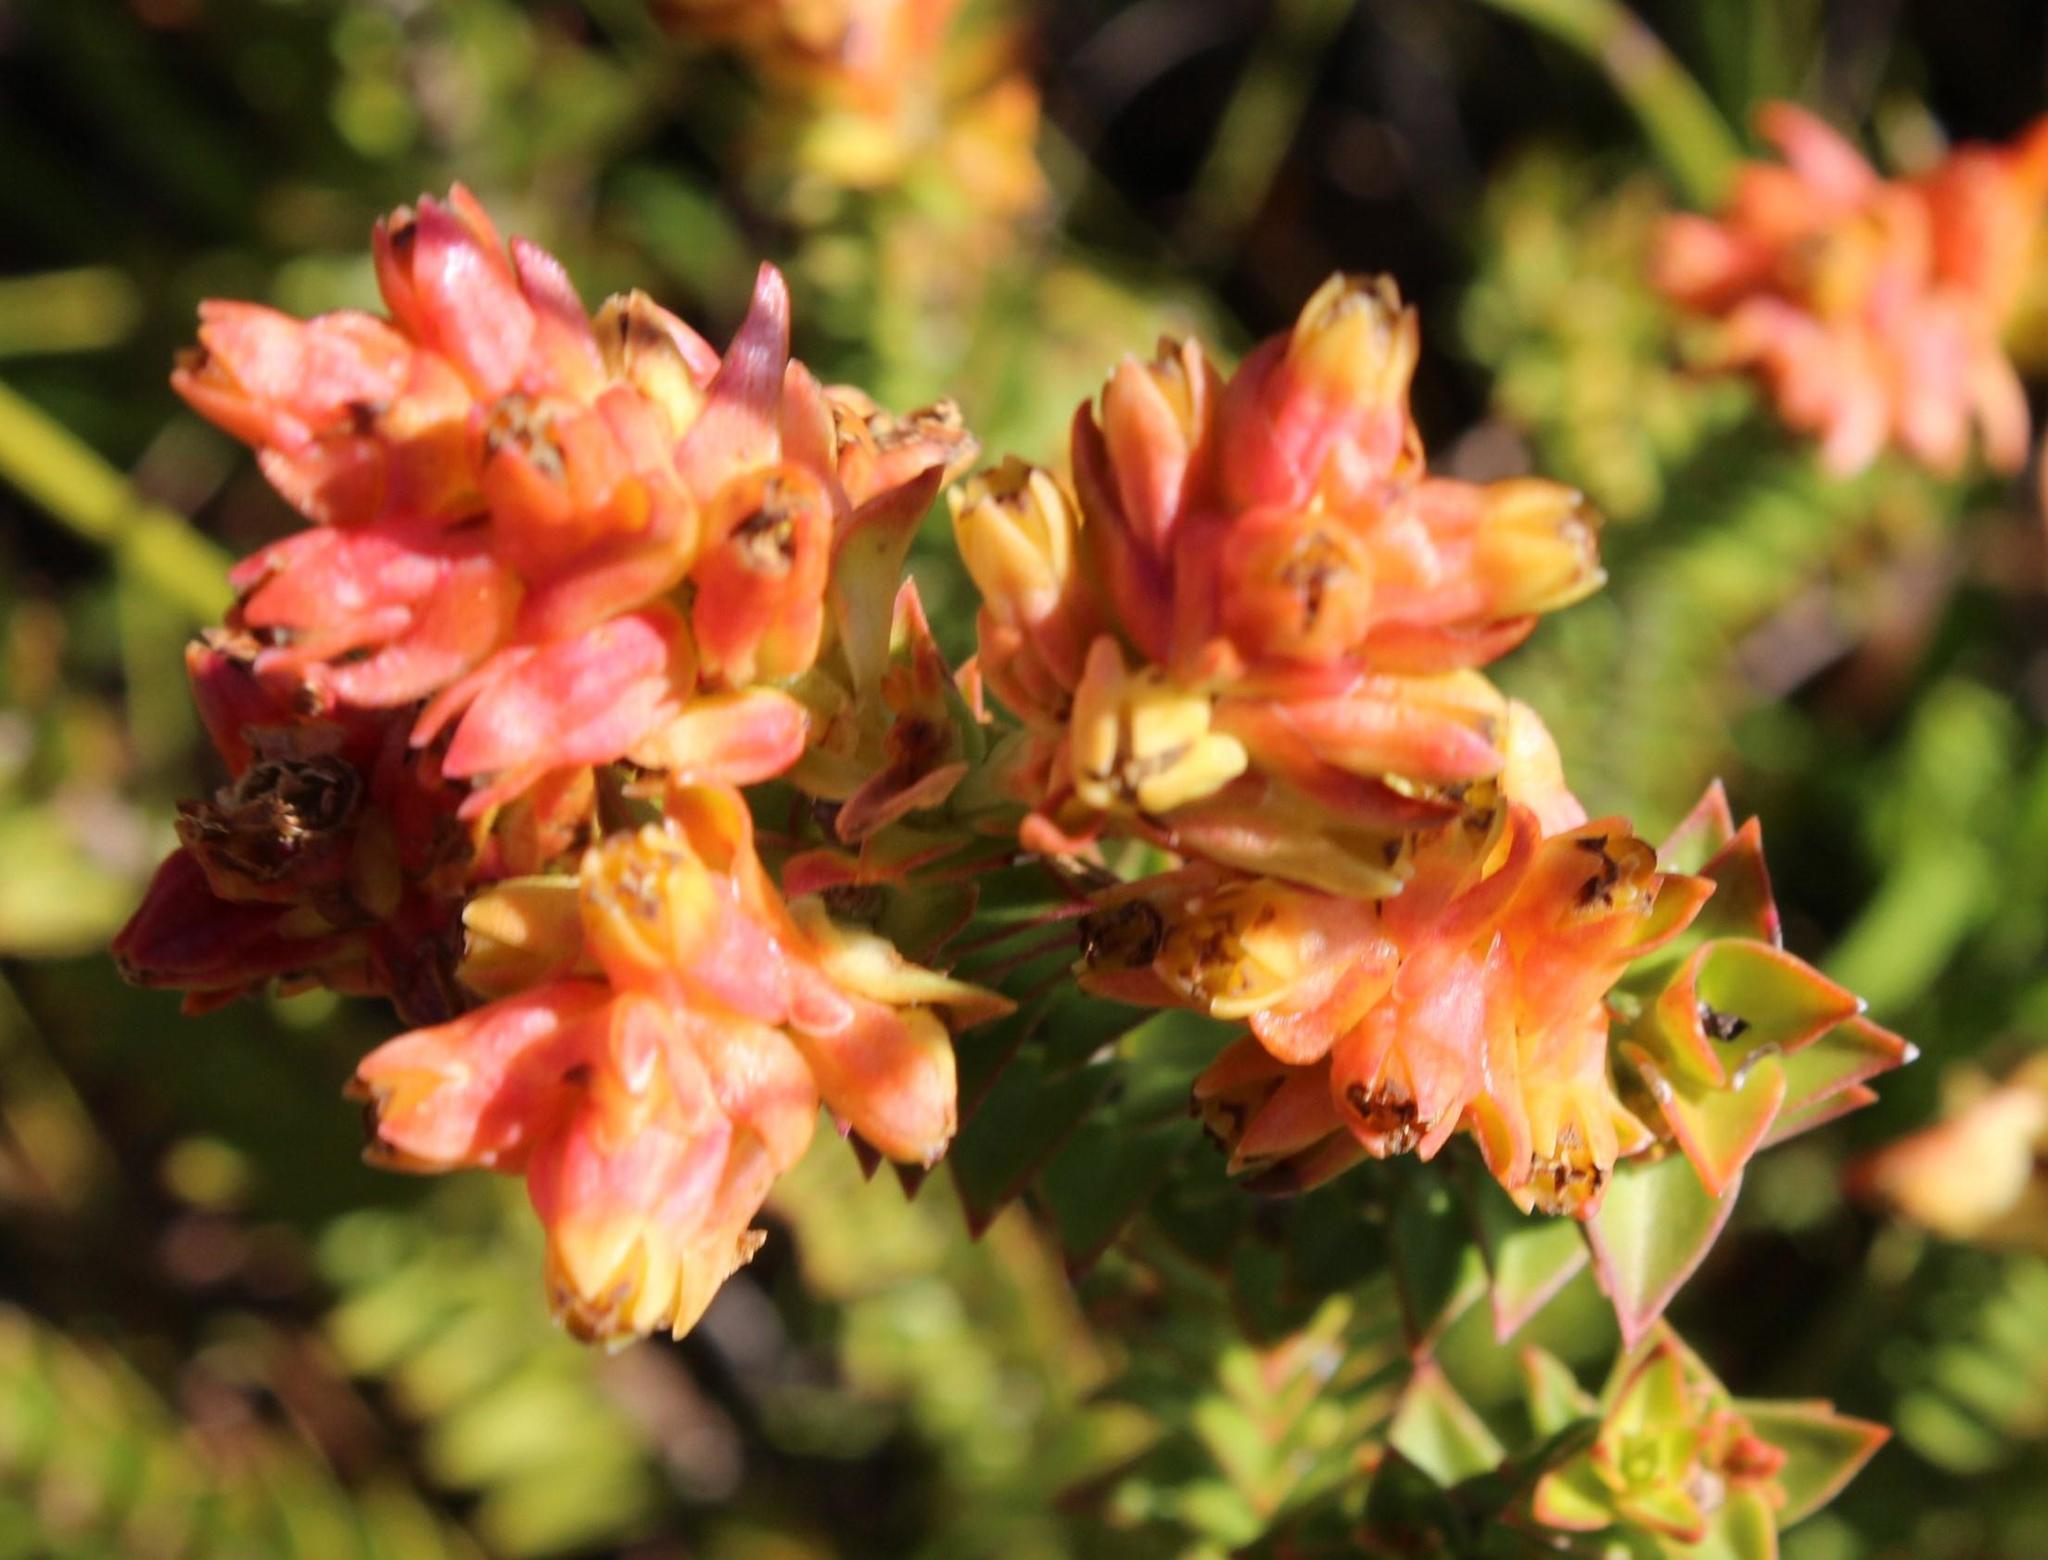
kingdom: Plantae
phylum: Tracheophyta
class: Magnoliopsida
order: Myrtales
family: Penaeaceae
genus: Penaea
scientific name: Penaea mucronata
